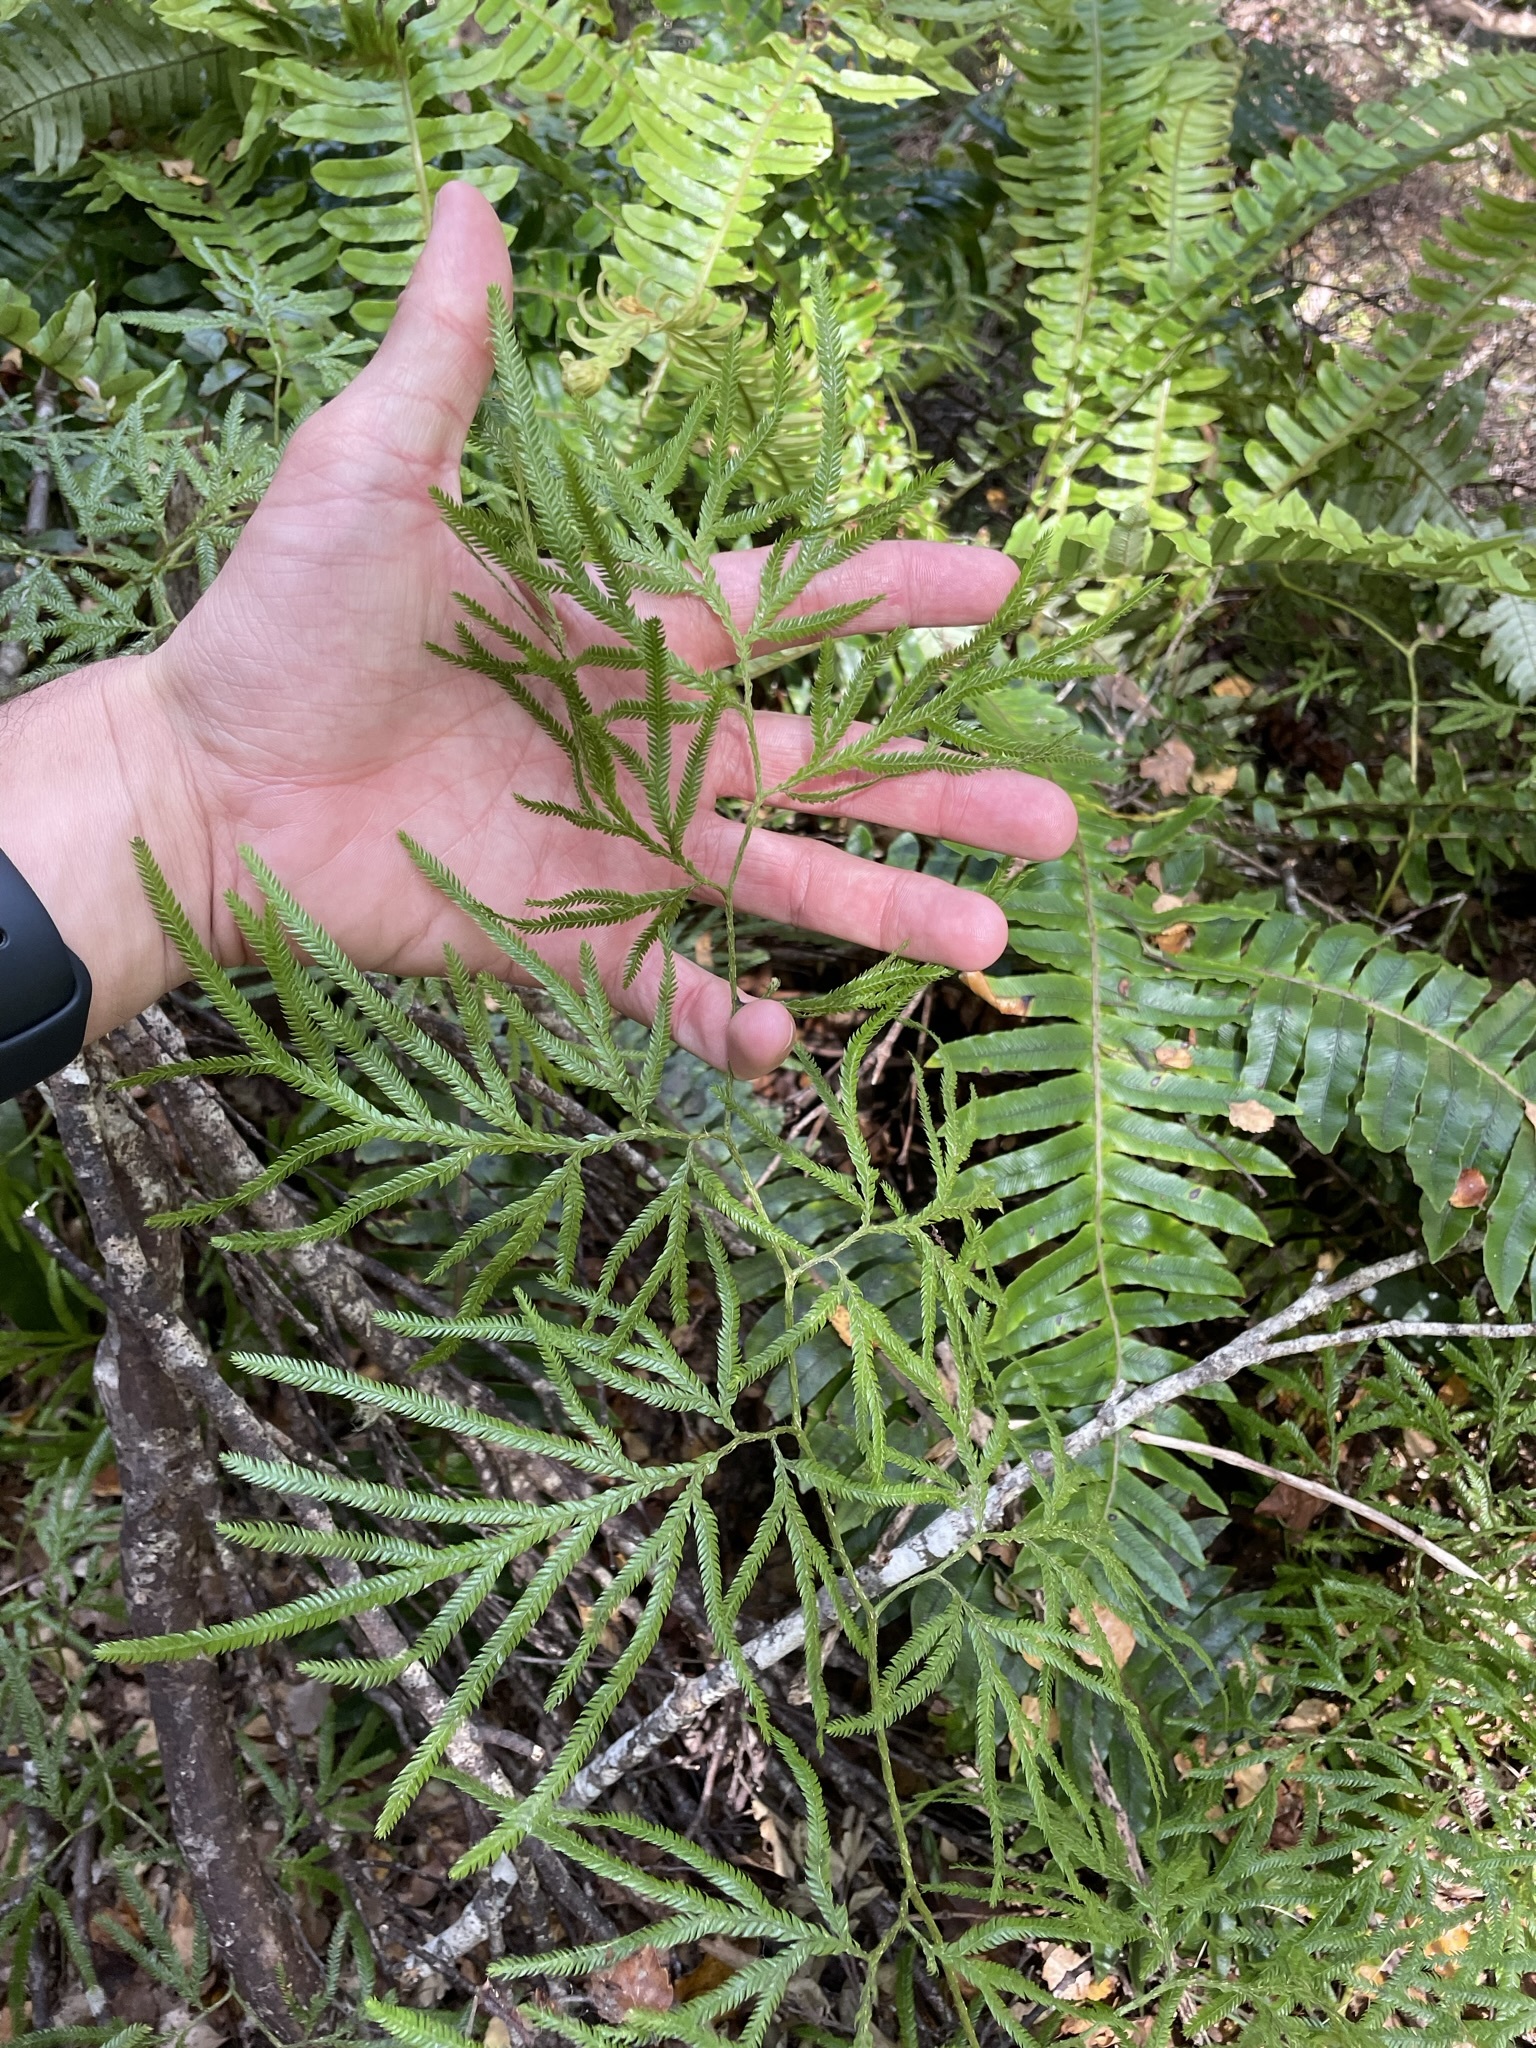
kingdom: Plantae
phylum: Tracheophyta
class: Lycopodiopsida
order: Lycopodiales
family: Lycopodiaceae
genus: Lycopodium
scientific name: Lycopodium volubile
